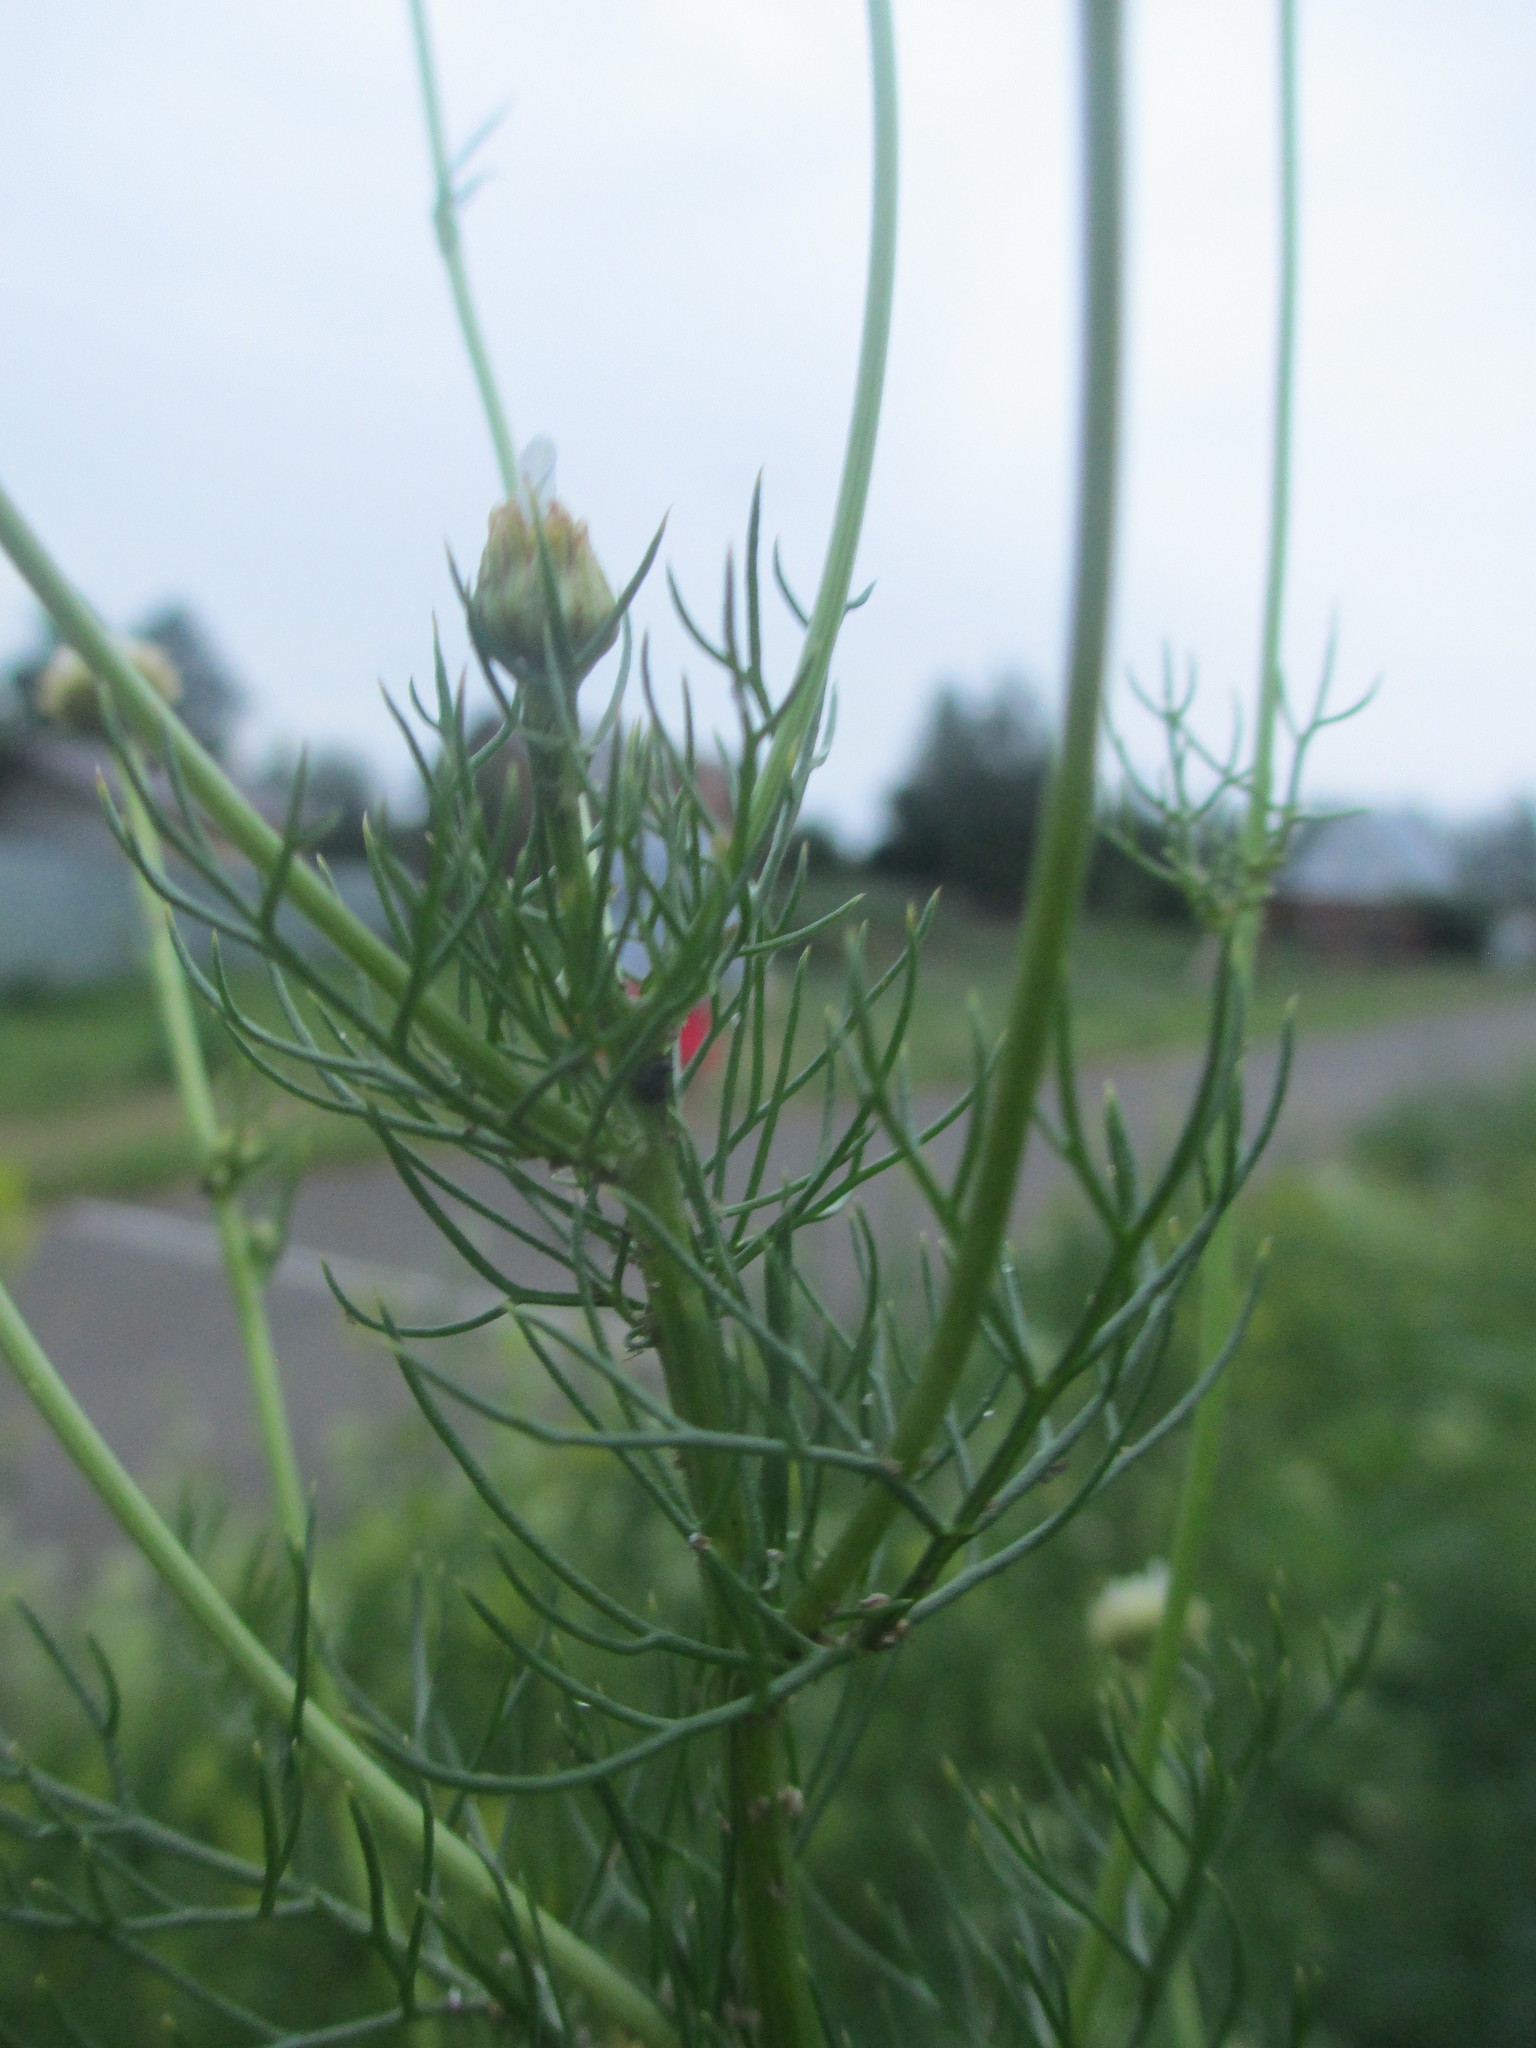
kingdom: Plantae
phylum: Tracheophyta
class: Magnoliopsida
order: Asterales
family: Asteraceae
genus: Tripleurospermum
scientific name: Tripleurospermum inodorum
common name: Scentless mayweed
